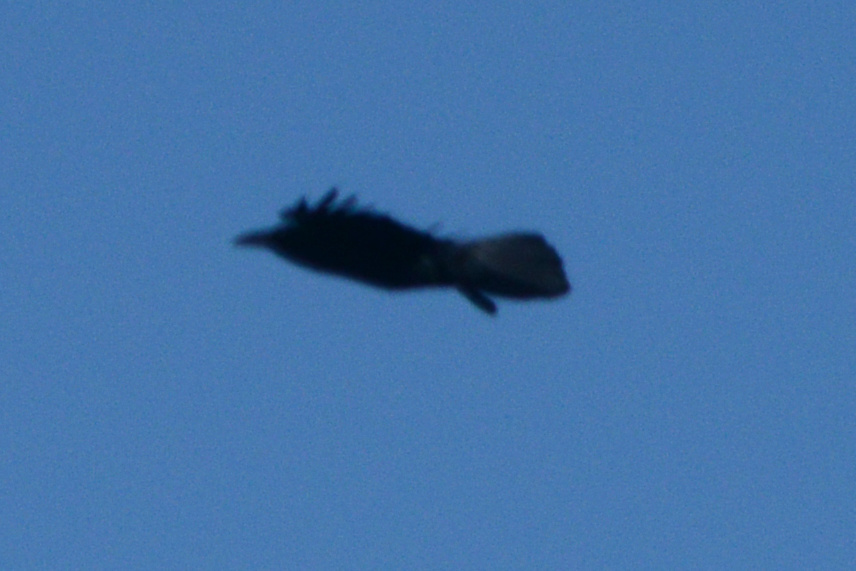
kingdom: Animalia
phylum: Chordata
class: Aves
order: Passeriformes
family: Corvidae
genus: Corvus
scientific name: Corvus corax
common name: Common raven
